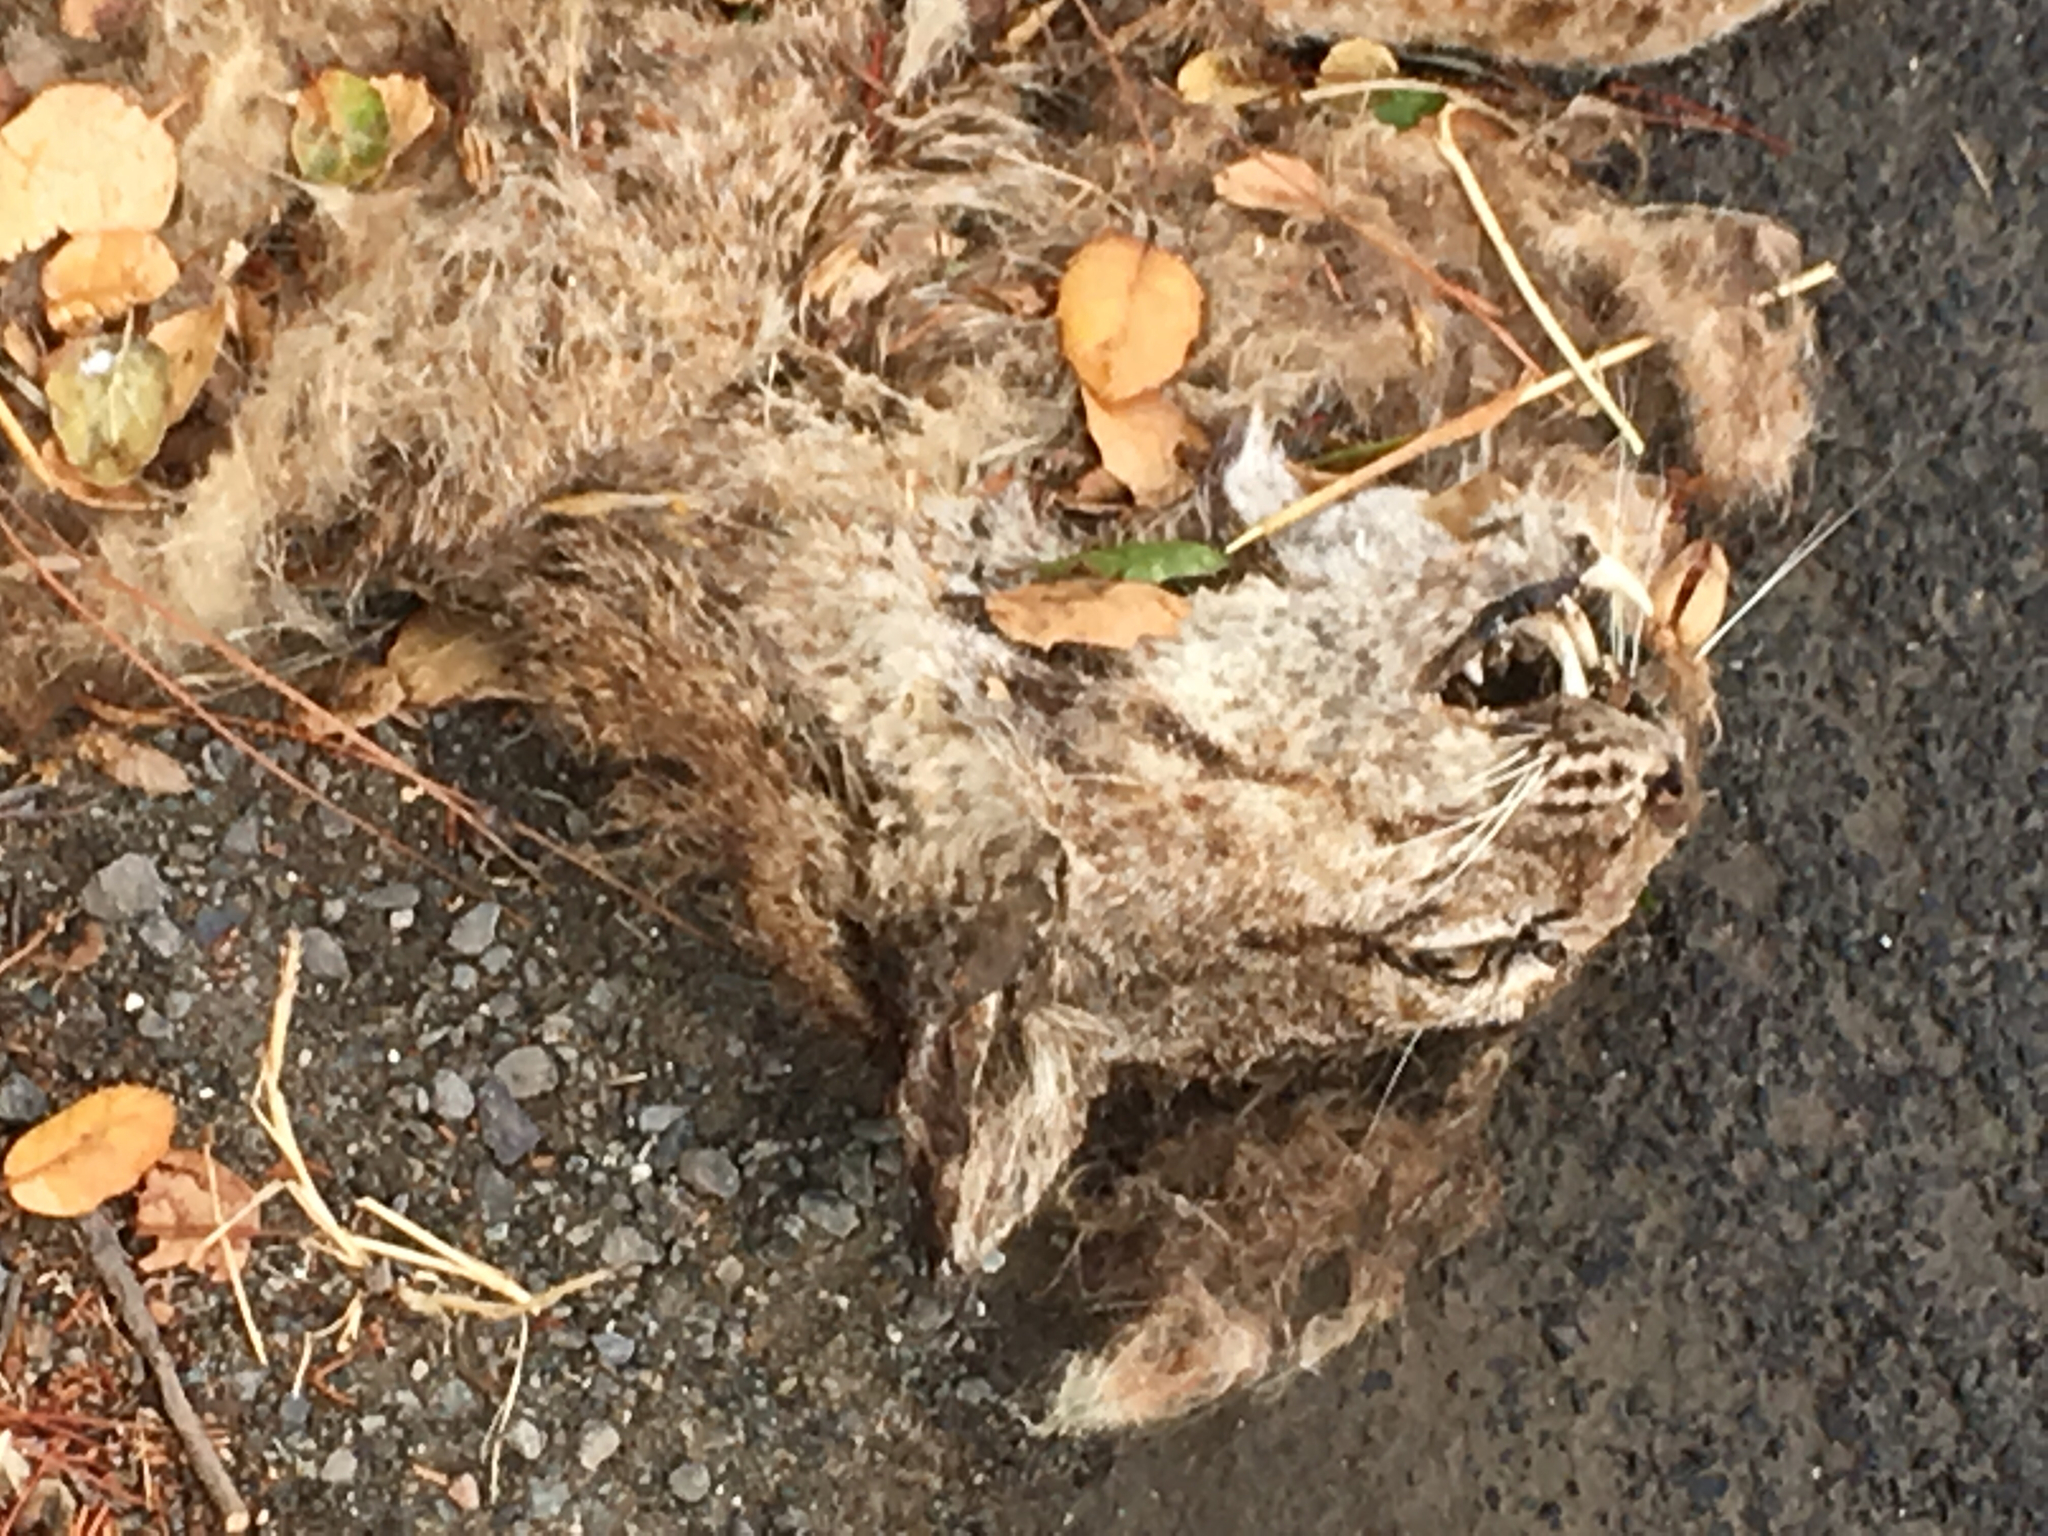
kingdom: Animalia
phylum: Chordata
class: Mammalia
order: Carnivora
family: Felidae
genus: Lynx
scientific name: Lynx rufus
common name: Bobcat
